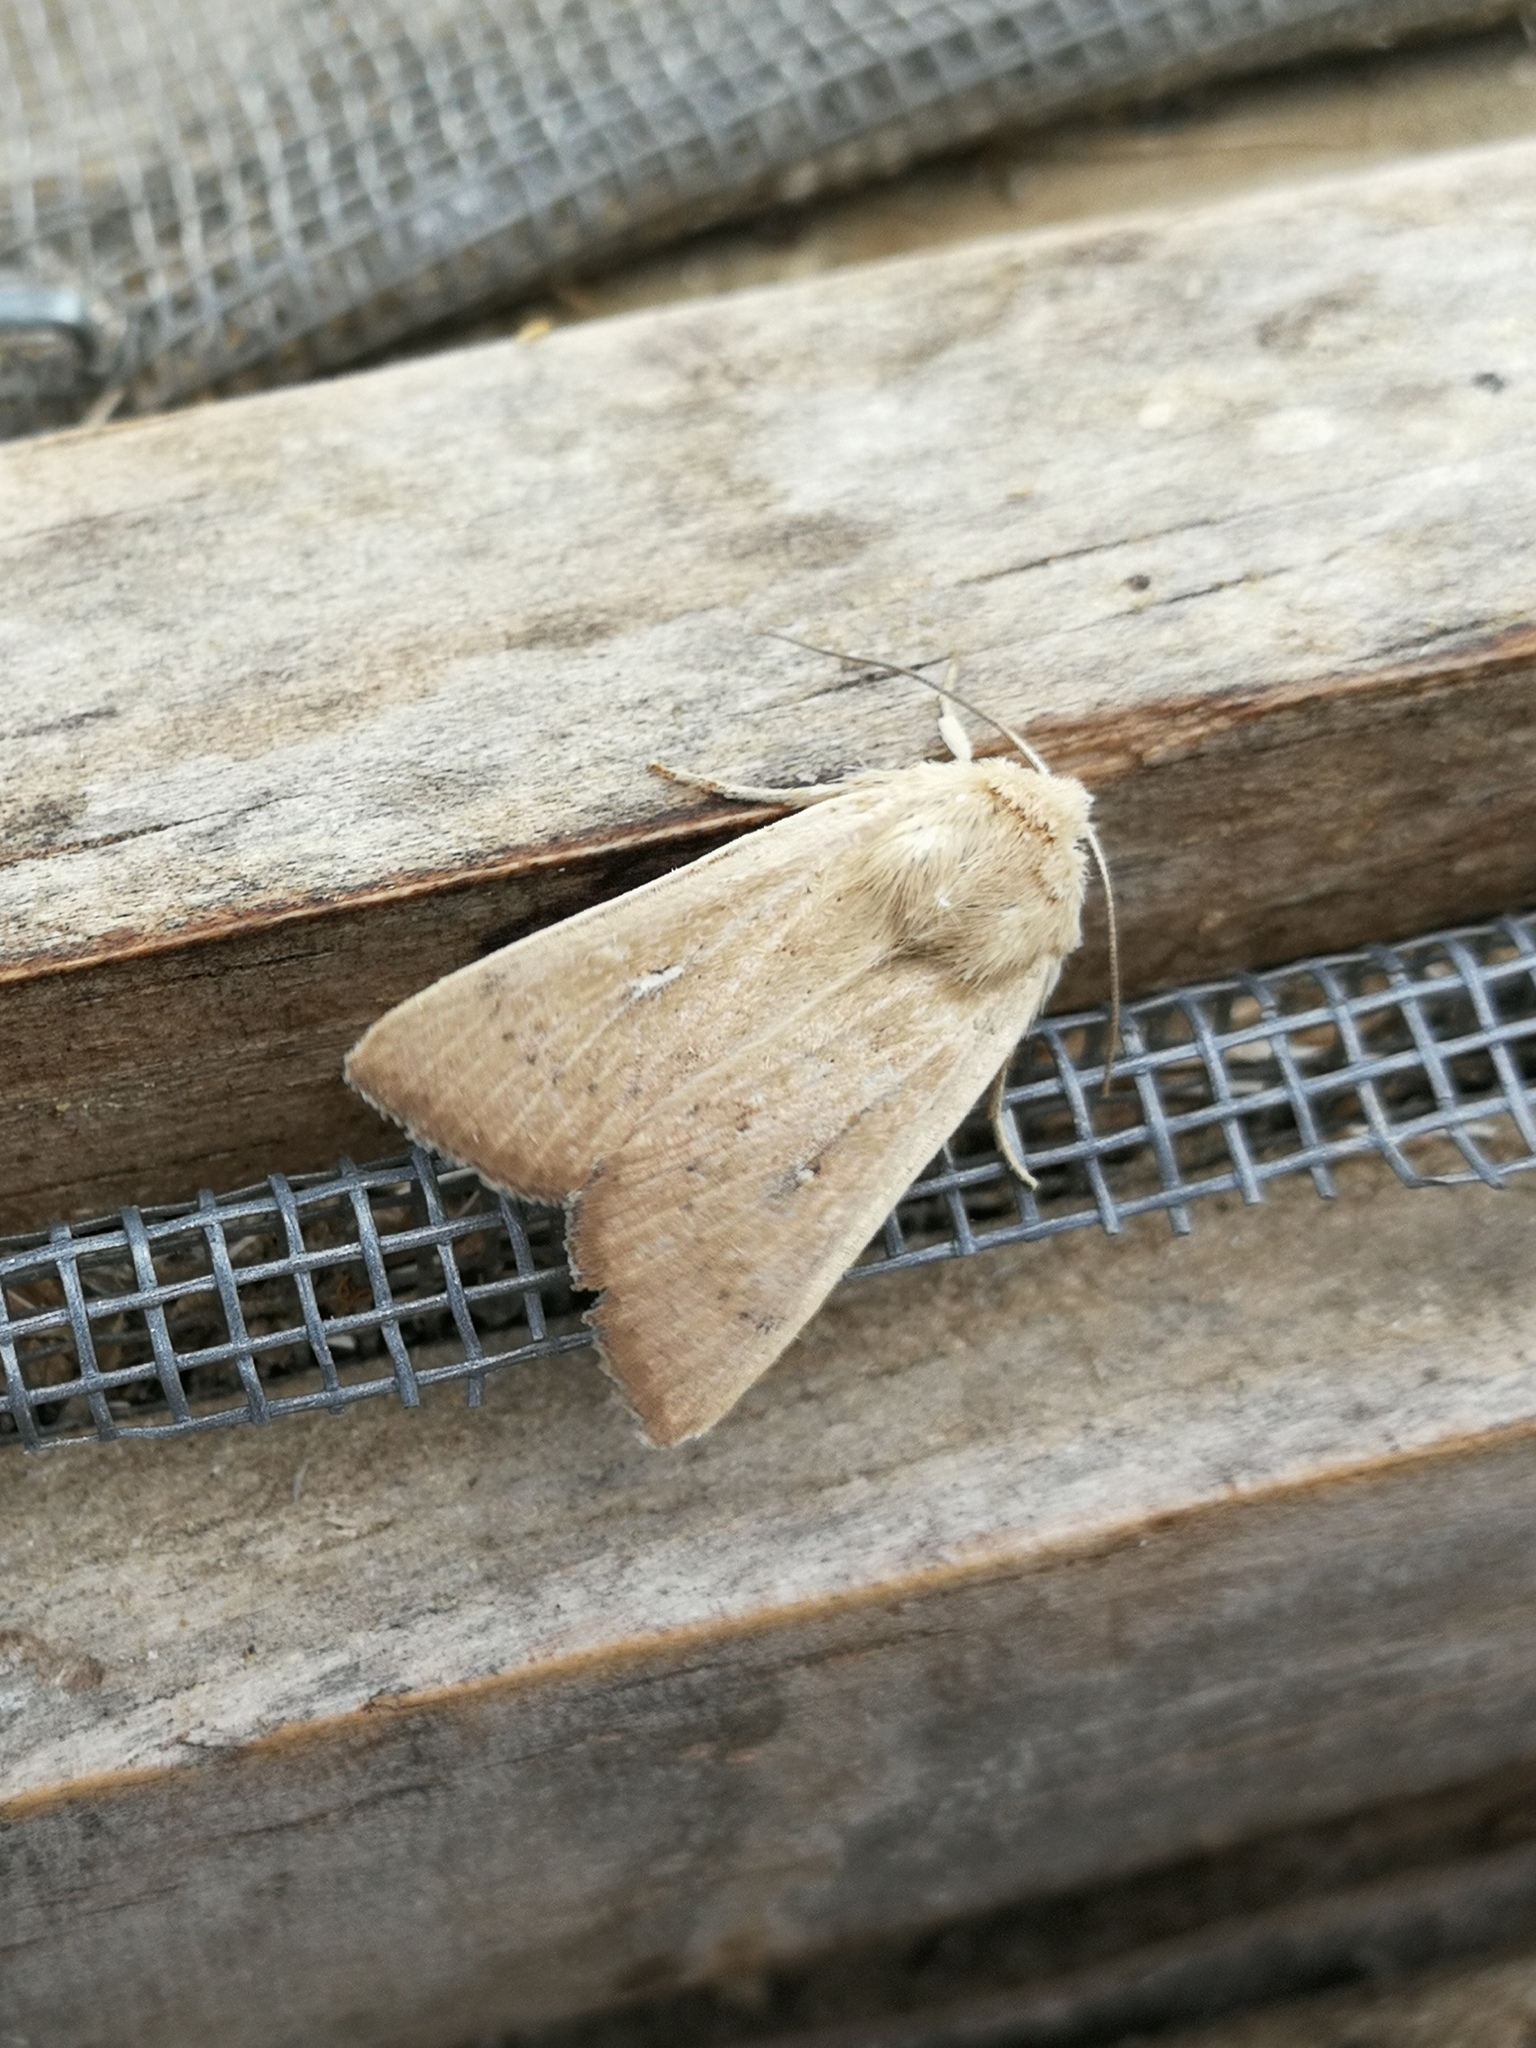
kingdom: Animalia
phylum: Arthropoda
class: Insecta
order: Lepidoptera
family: Noctuidae
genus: Mythimna
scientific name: Mythimna sicula
